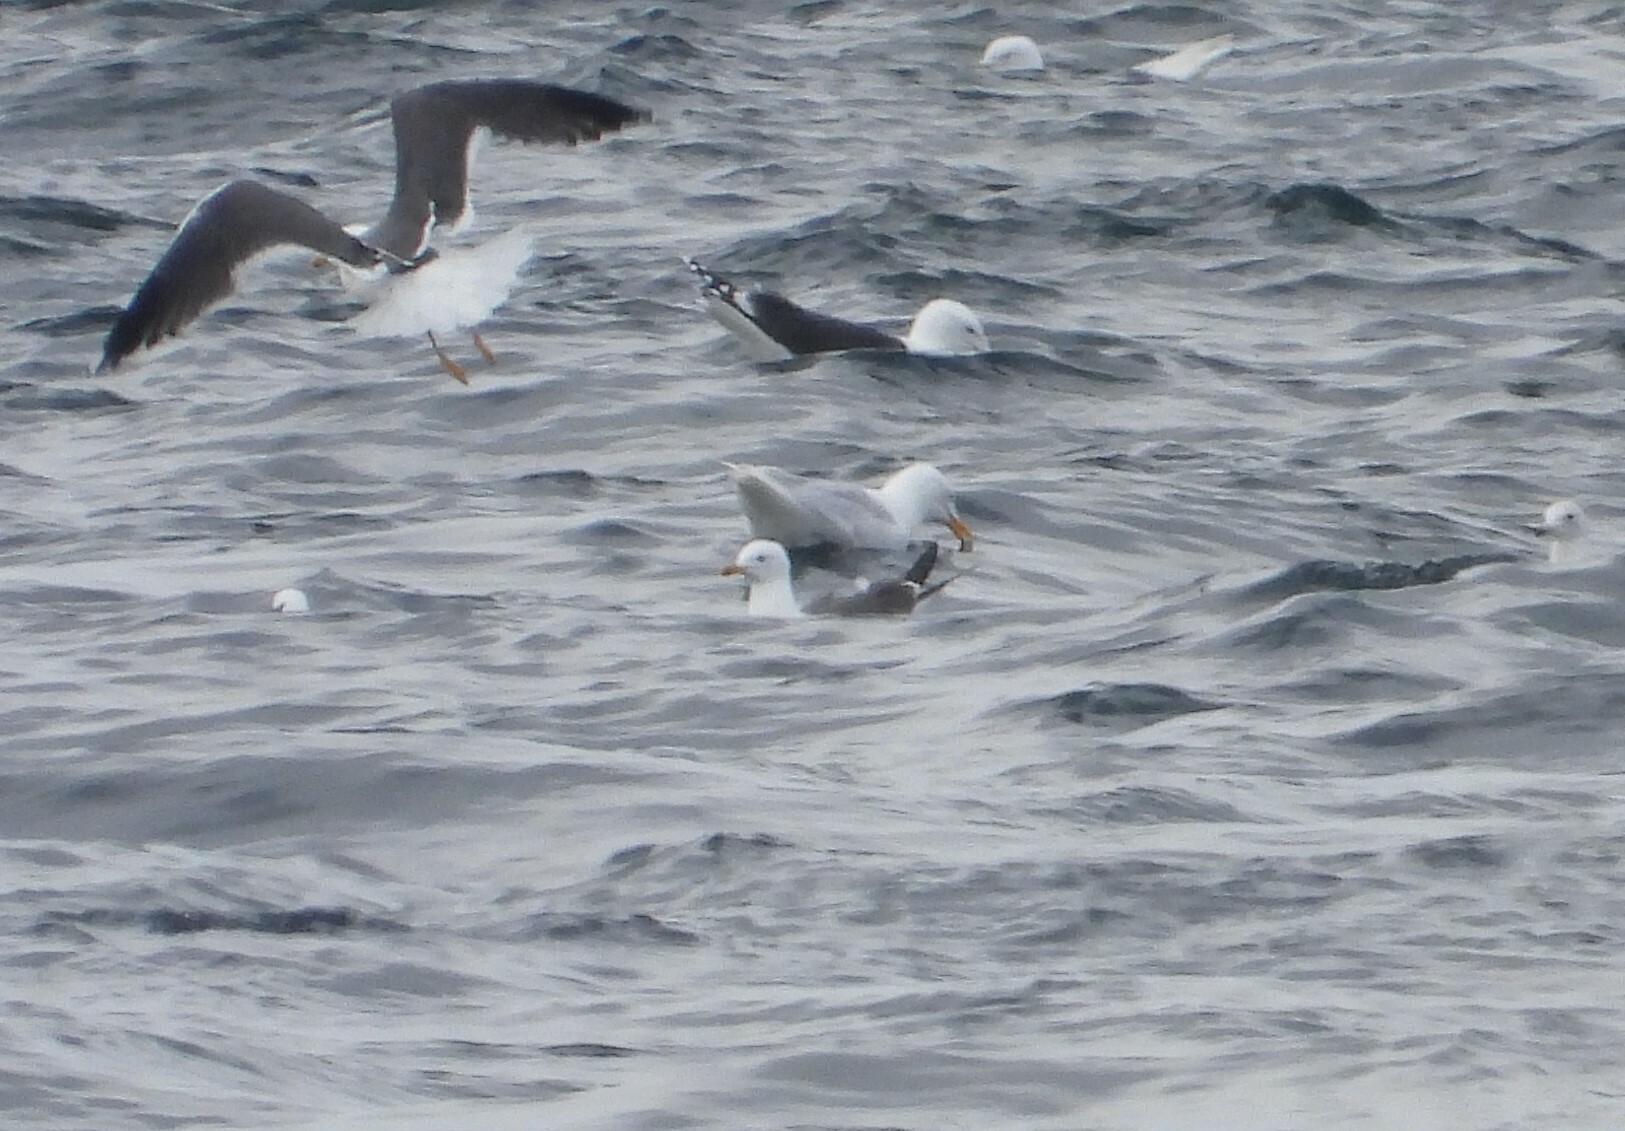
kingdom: Animalia
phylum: Chordata
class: Aves
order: Charadriiformes
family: Laridae
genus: Larus
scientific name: Larus fuscus
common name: Lesser black-backed gull
